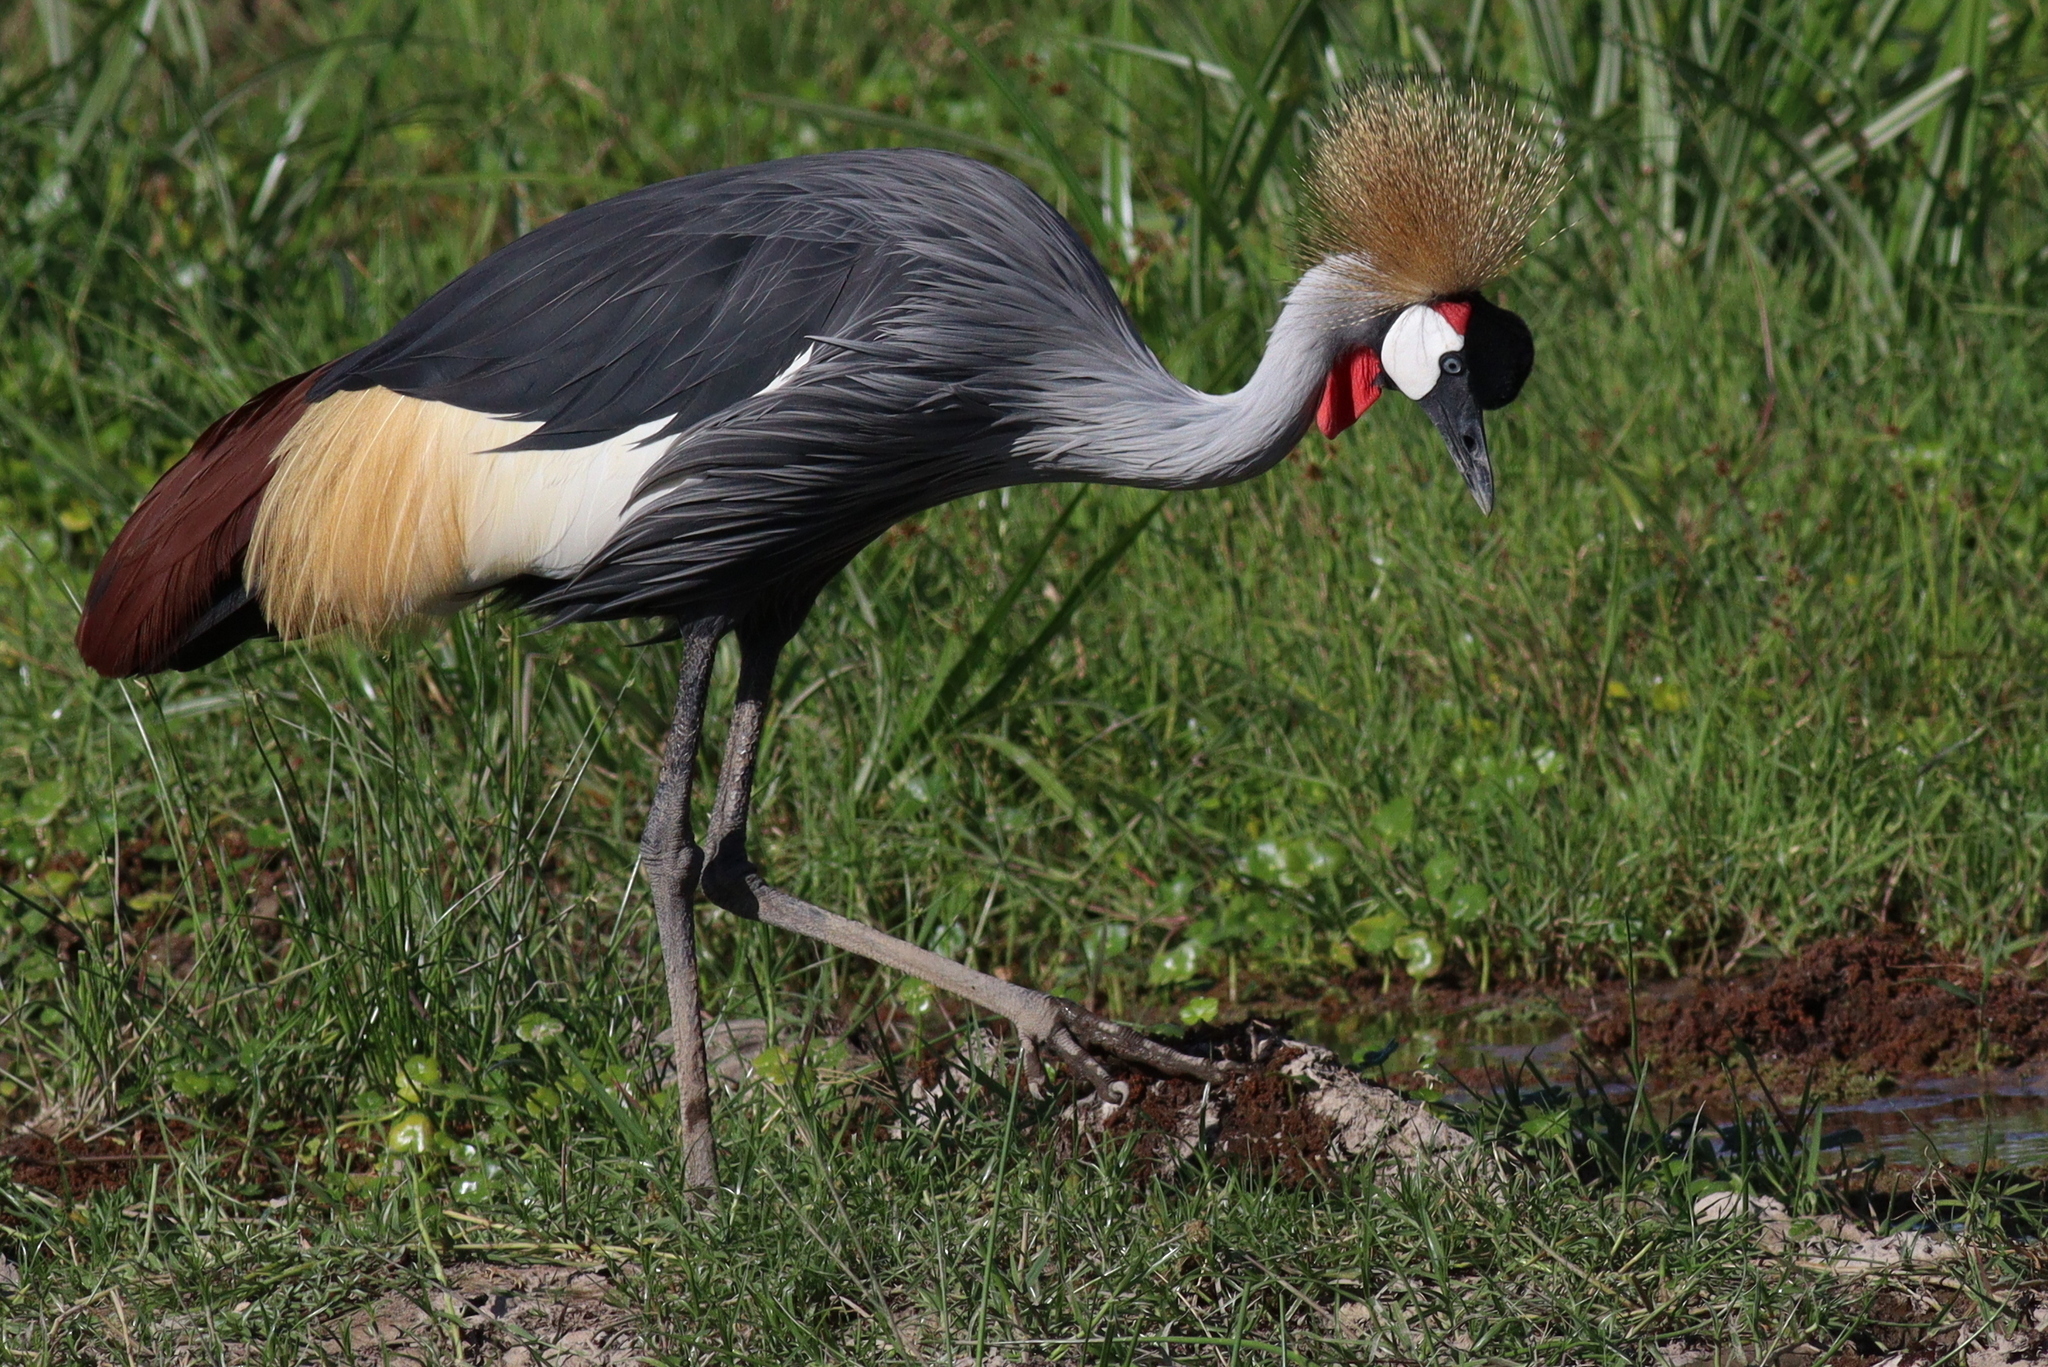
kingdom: Animalia
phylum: Chordata
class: Aves
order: Gruiformes
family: Gruidae
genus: Balearica
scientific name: Balearica regulorum
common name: Grey crowned crane
